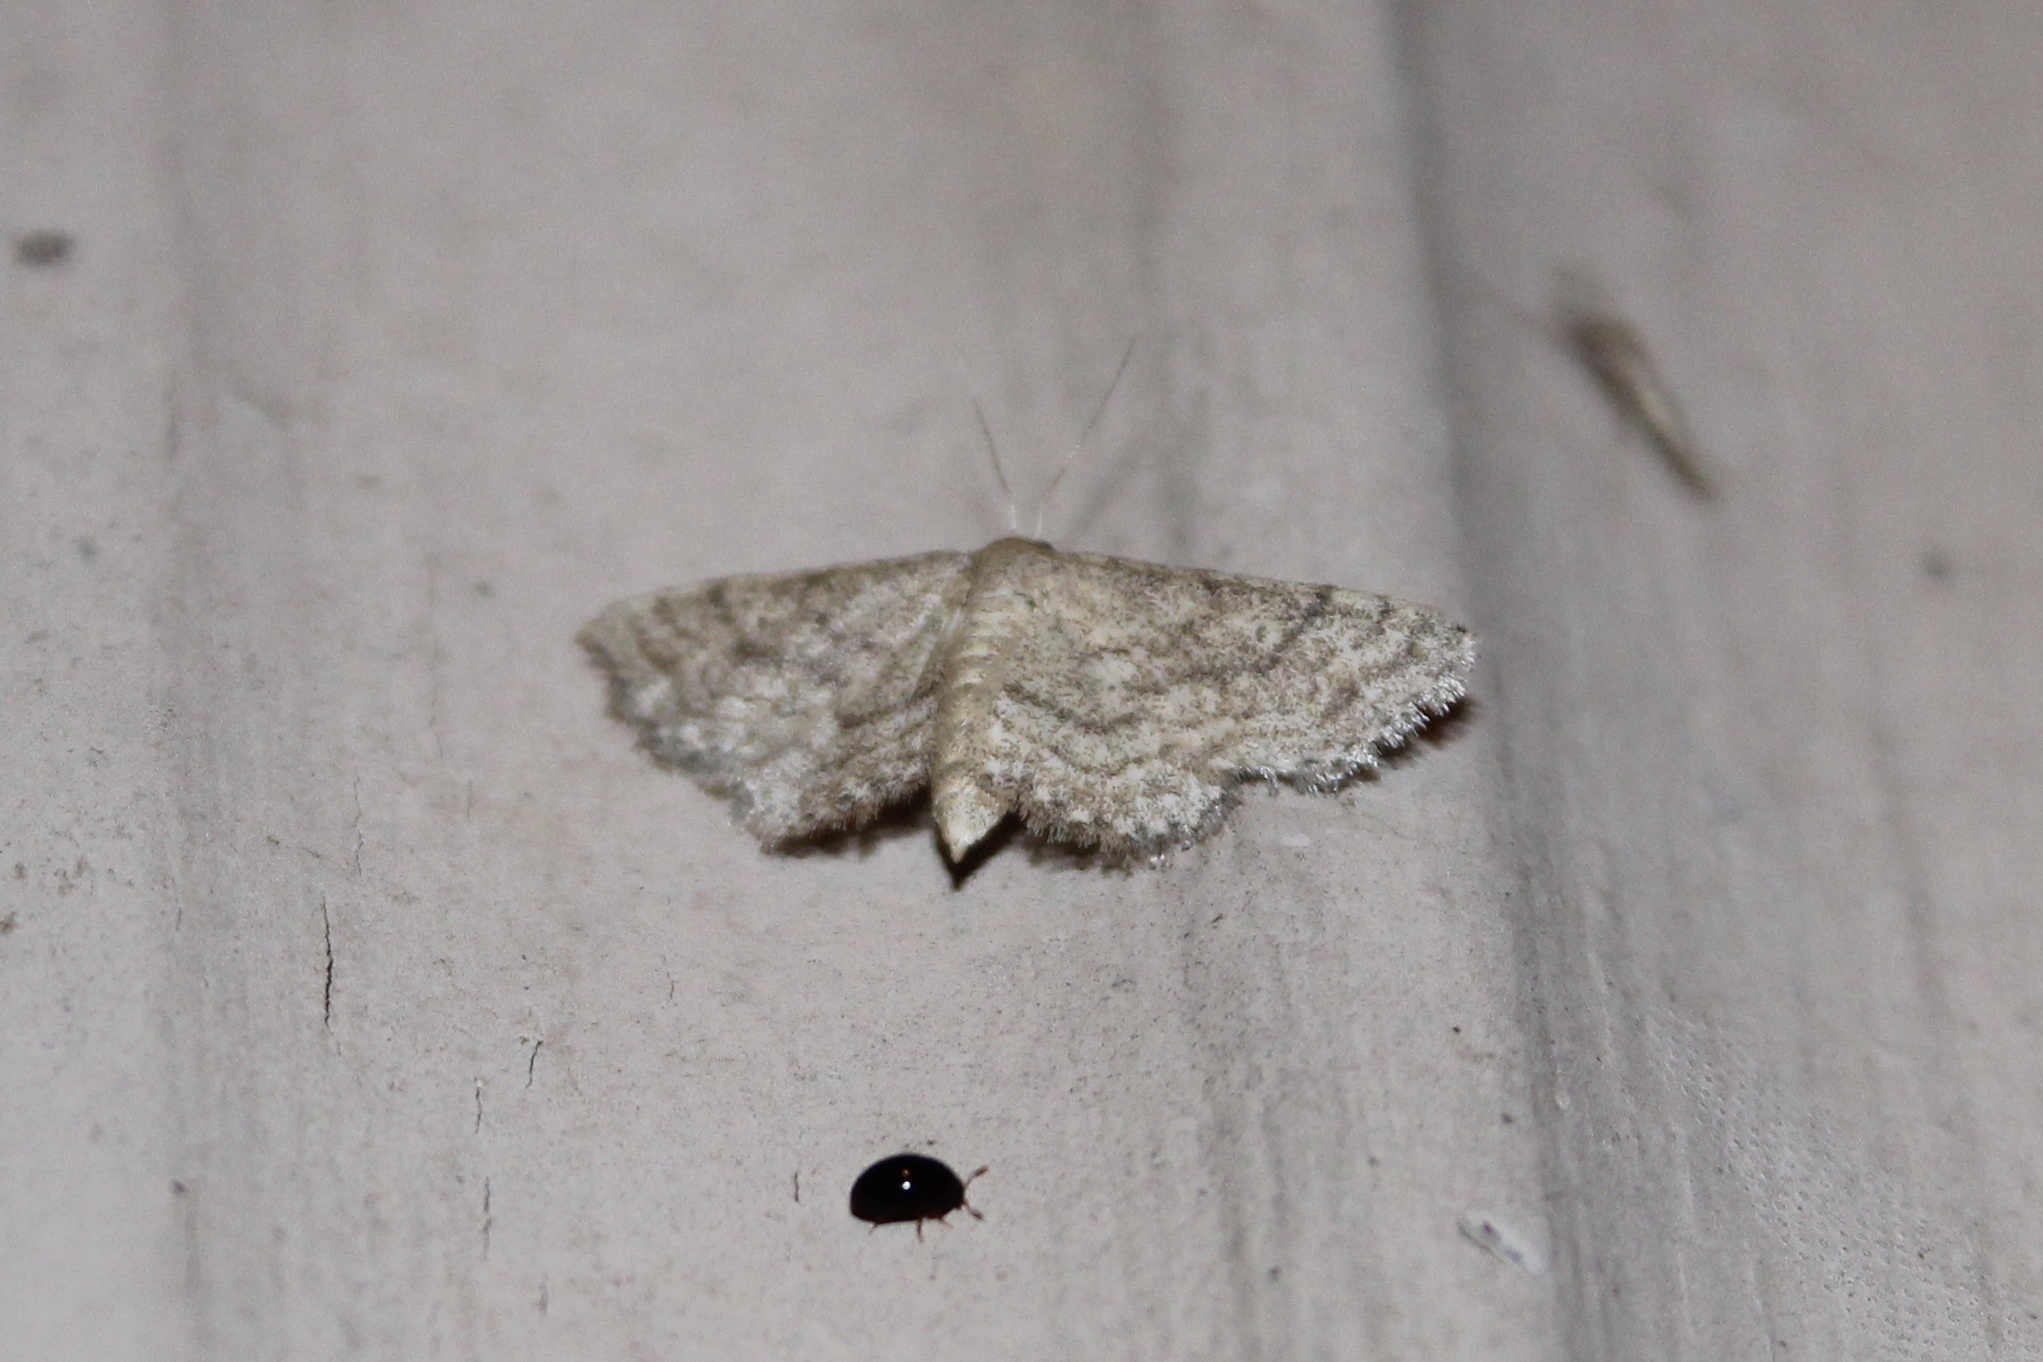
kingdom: Animalia
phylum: Arthropoda
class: Insecta
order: Lepidoptera
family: Geometridae
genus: Lobocleta
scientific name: Lobocleta ossularia
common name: Drab brown wave
